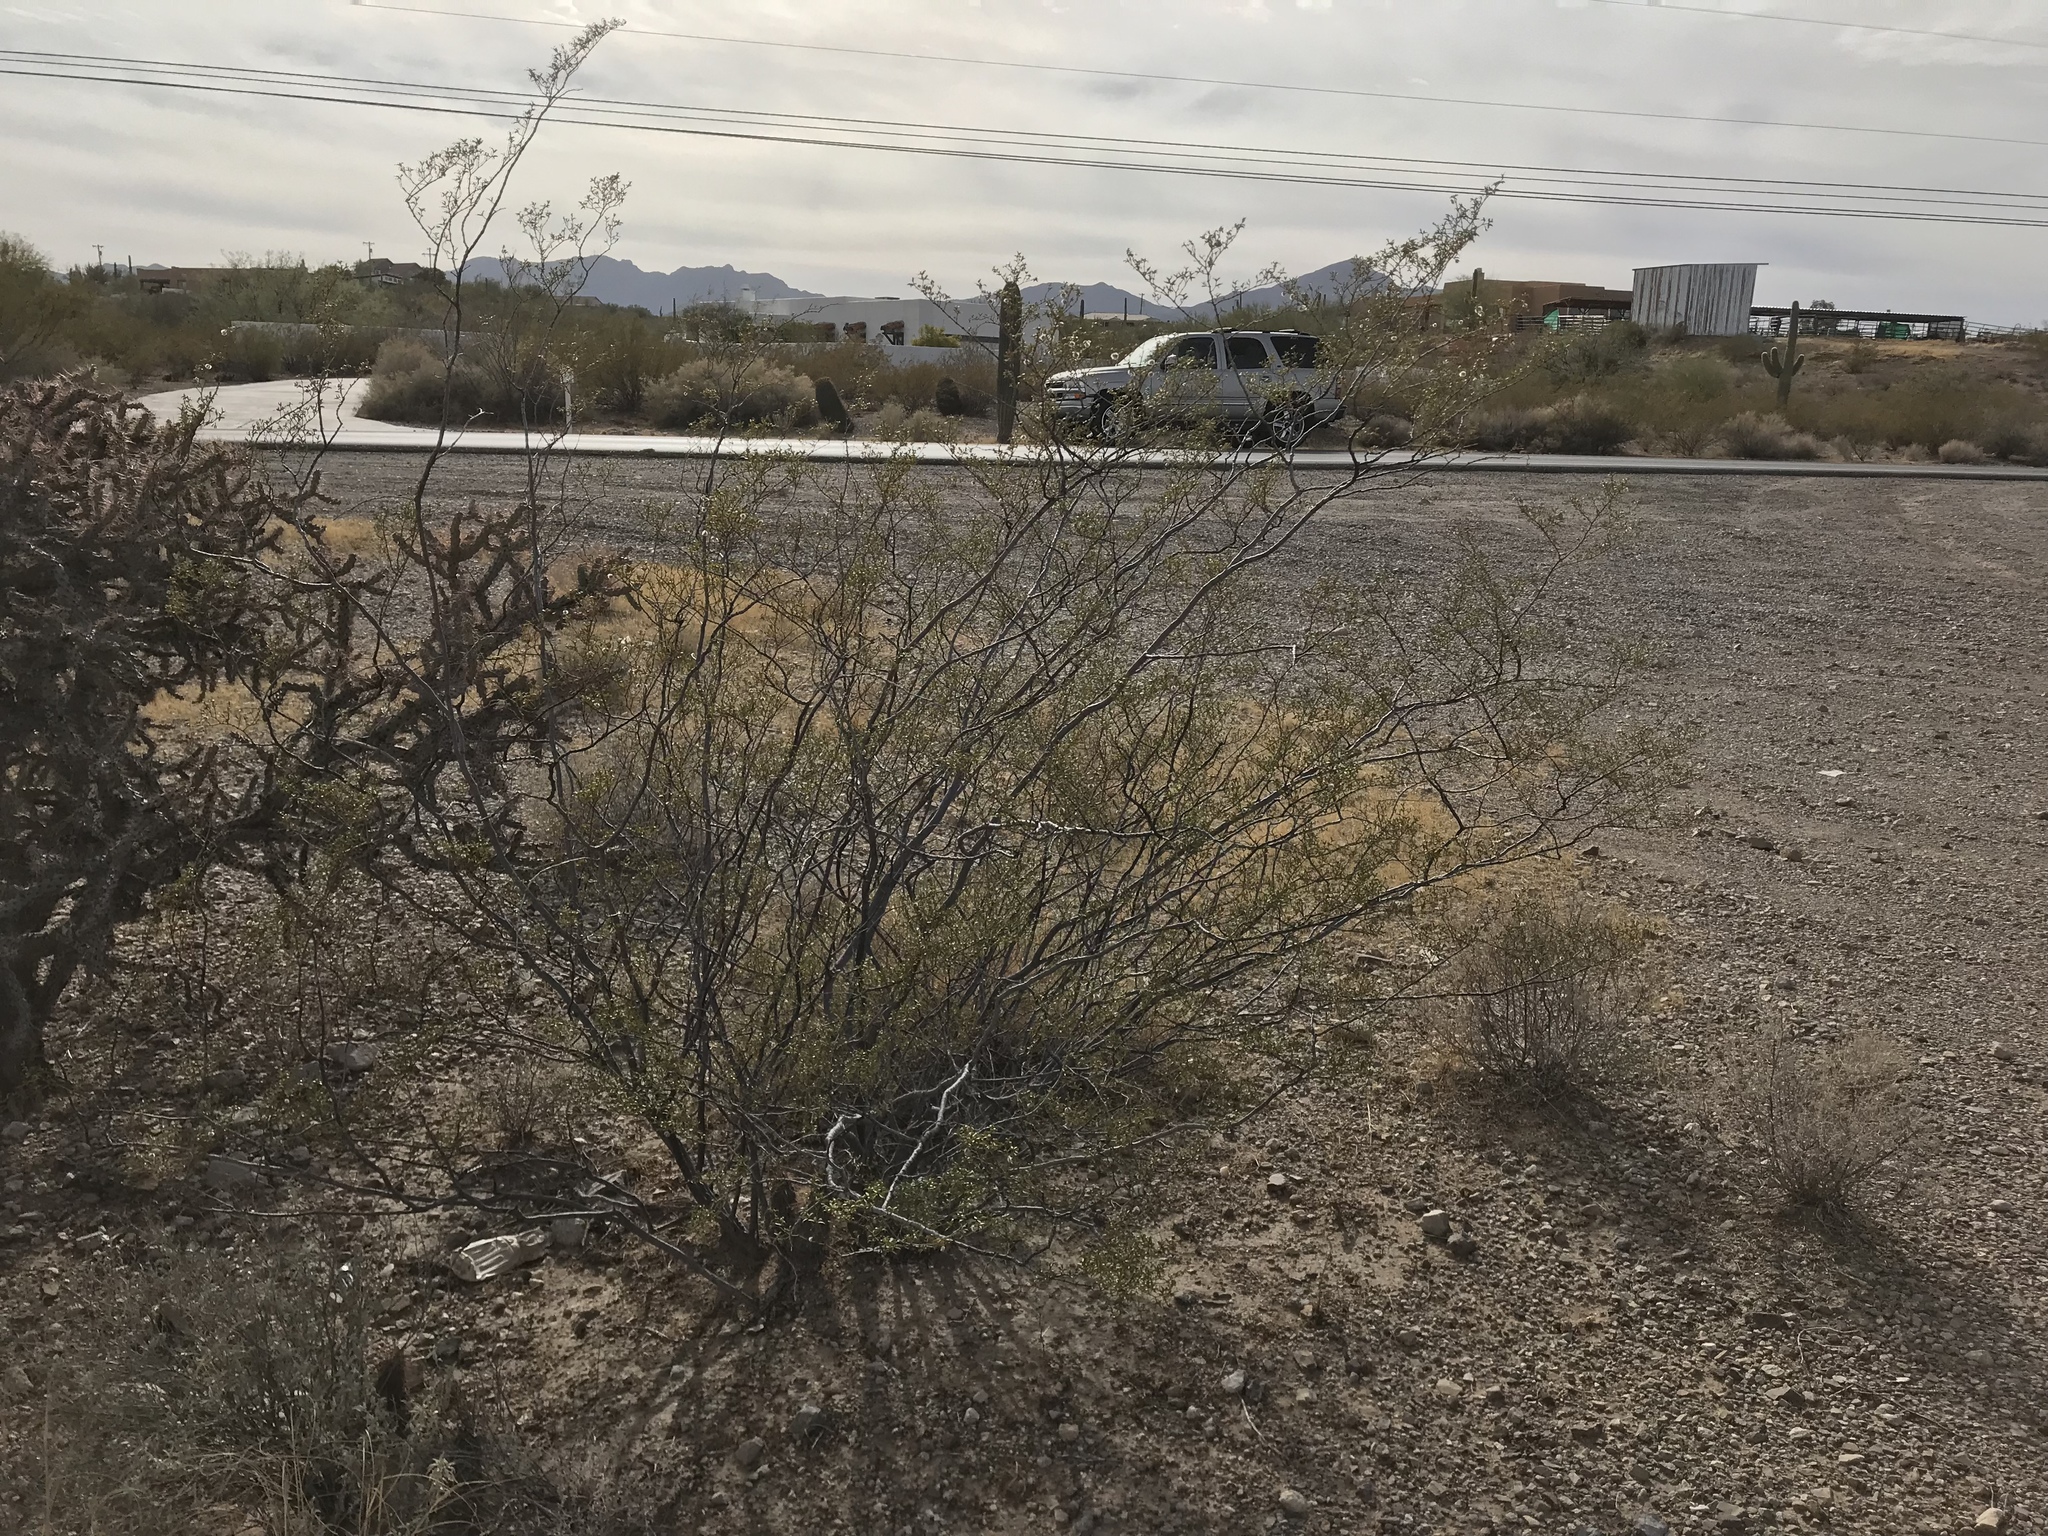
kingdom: Plantae
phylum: Tracheophyta
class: Magnoliopsida
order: Zygophyllales
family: Zygophyllaceae
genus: Larrea
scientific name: Larrea tridentata
